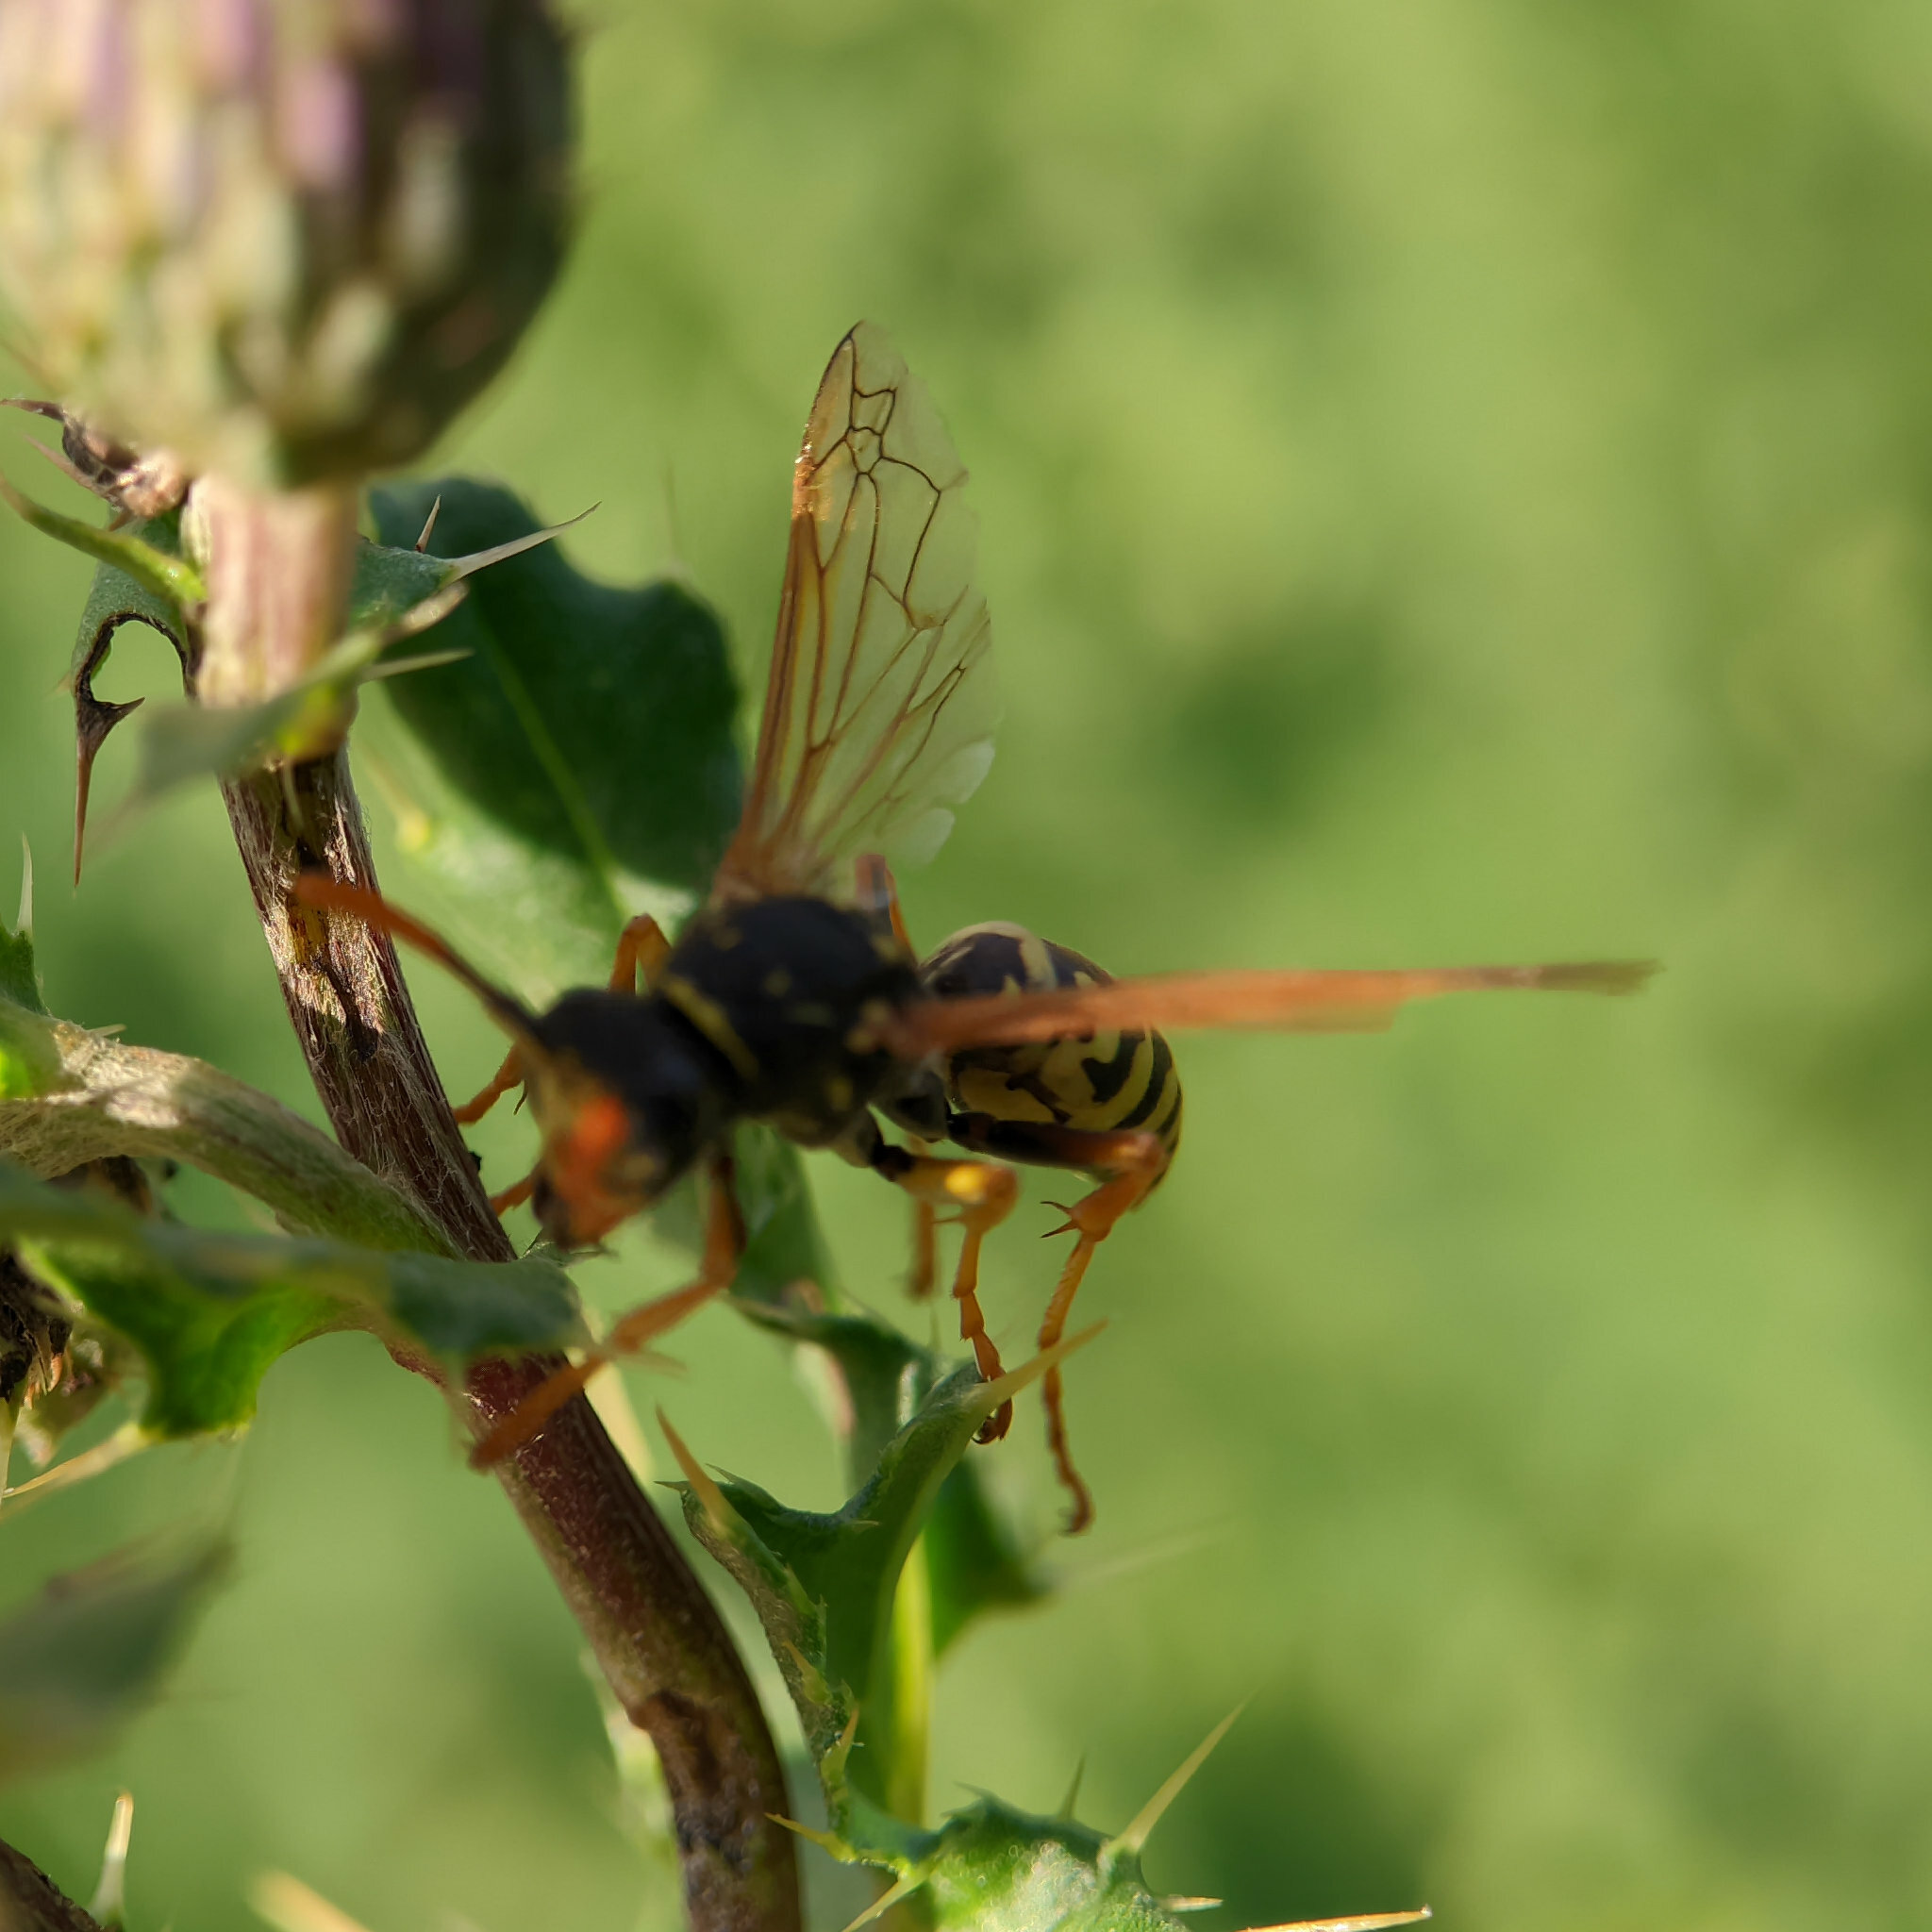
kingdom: Animalia
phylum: Arthropoda
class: Insecta
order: Hymenoptera
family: Eumenidae
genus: Polistes
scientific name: Polistes dominula
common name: Paper wasp
